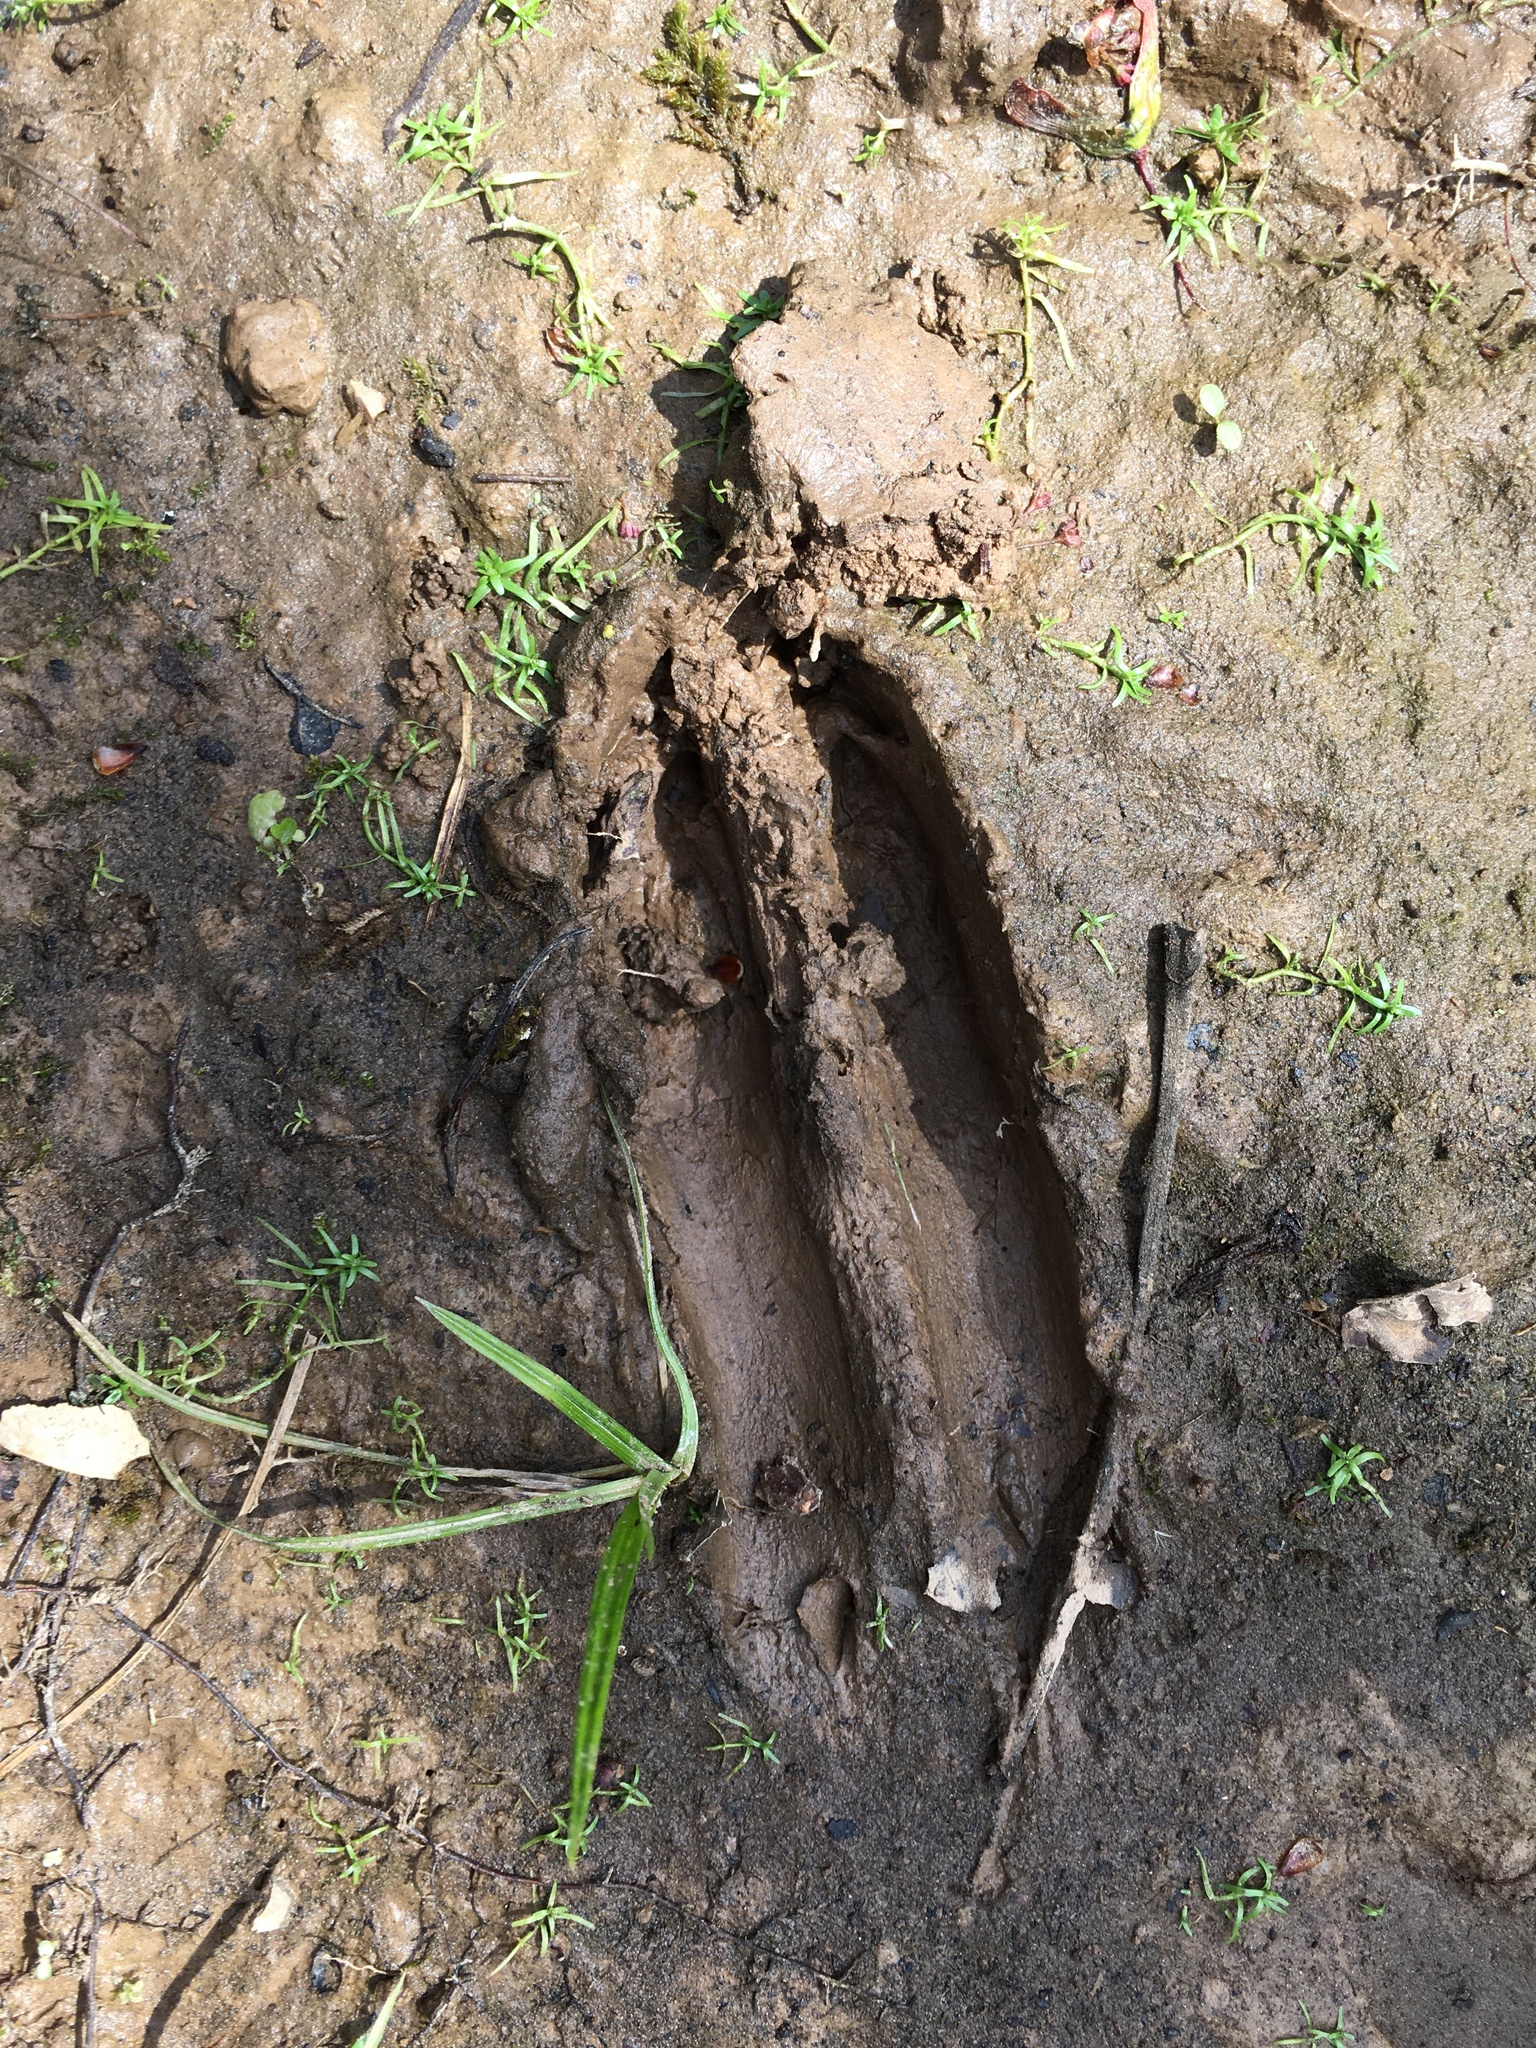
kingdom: Animalia
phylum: Chordata
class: Mammalia
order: Artiodactyla
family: Cervidae
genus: Odocoileus
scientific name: Odocoileus virginianus
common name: White-tailed deer
